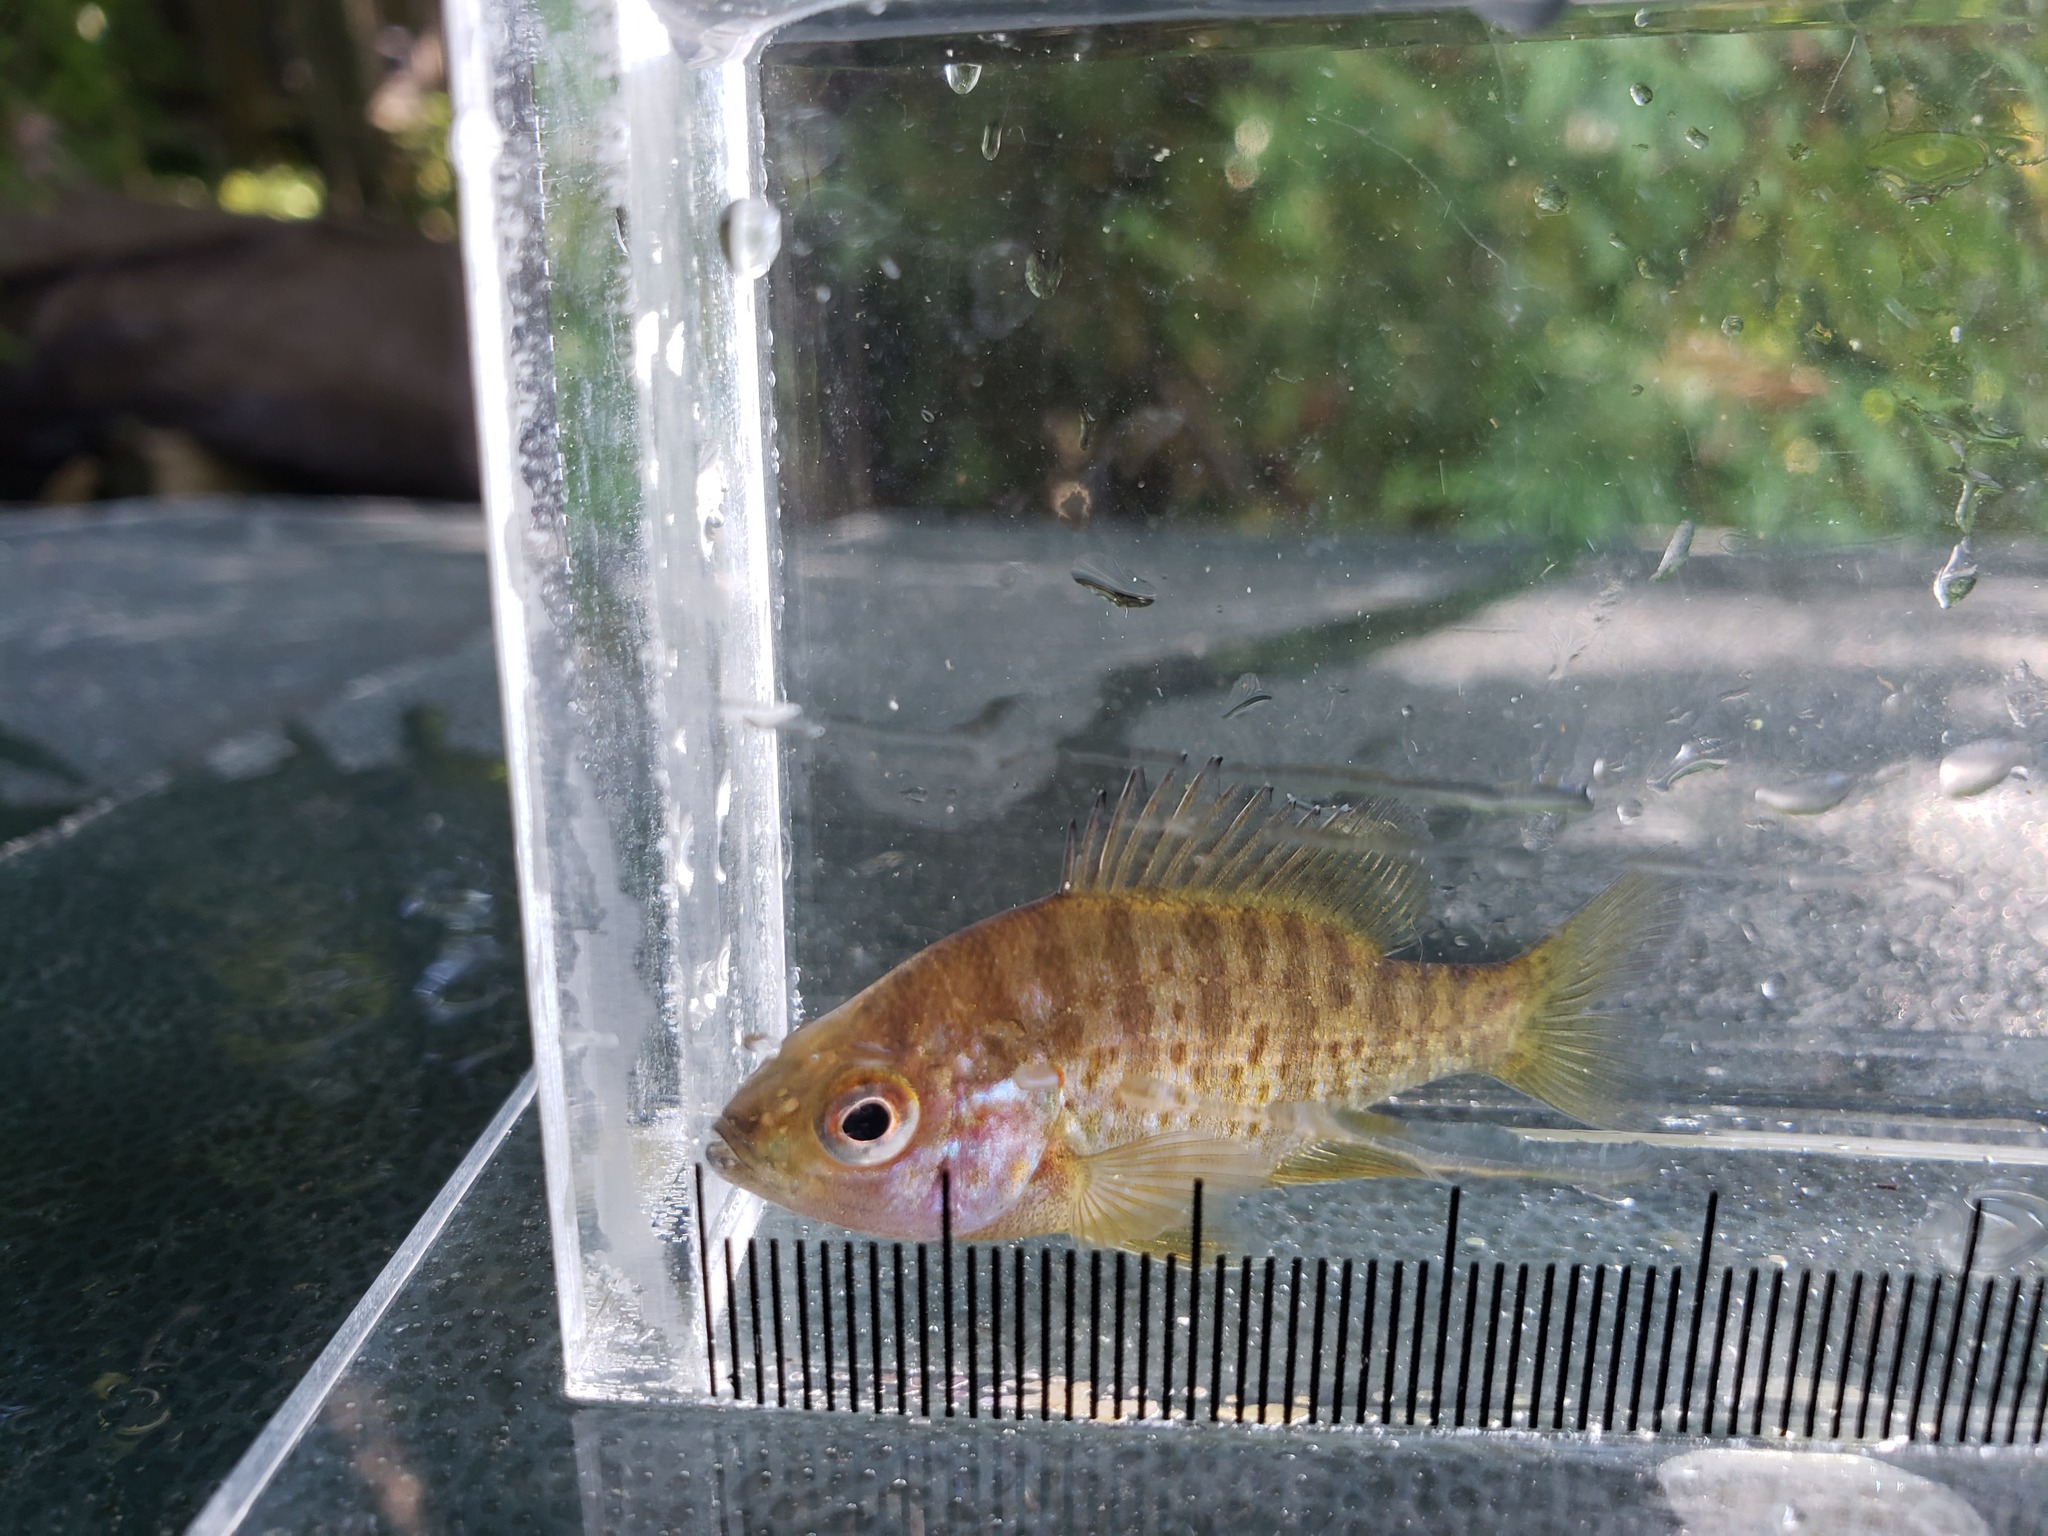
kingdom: Animalia
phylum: Chordata
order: Perciformes
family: Centrarchidae
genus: Lepomis
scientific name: Lepomis gibbosus
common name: Pumpkinseed
